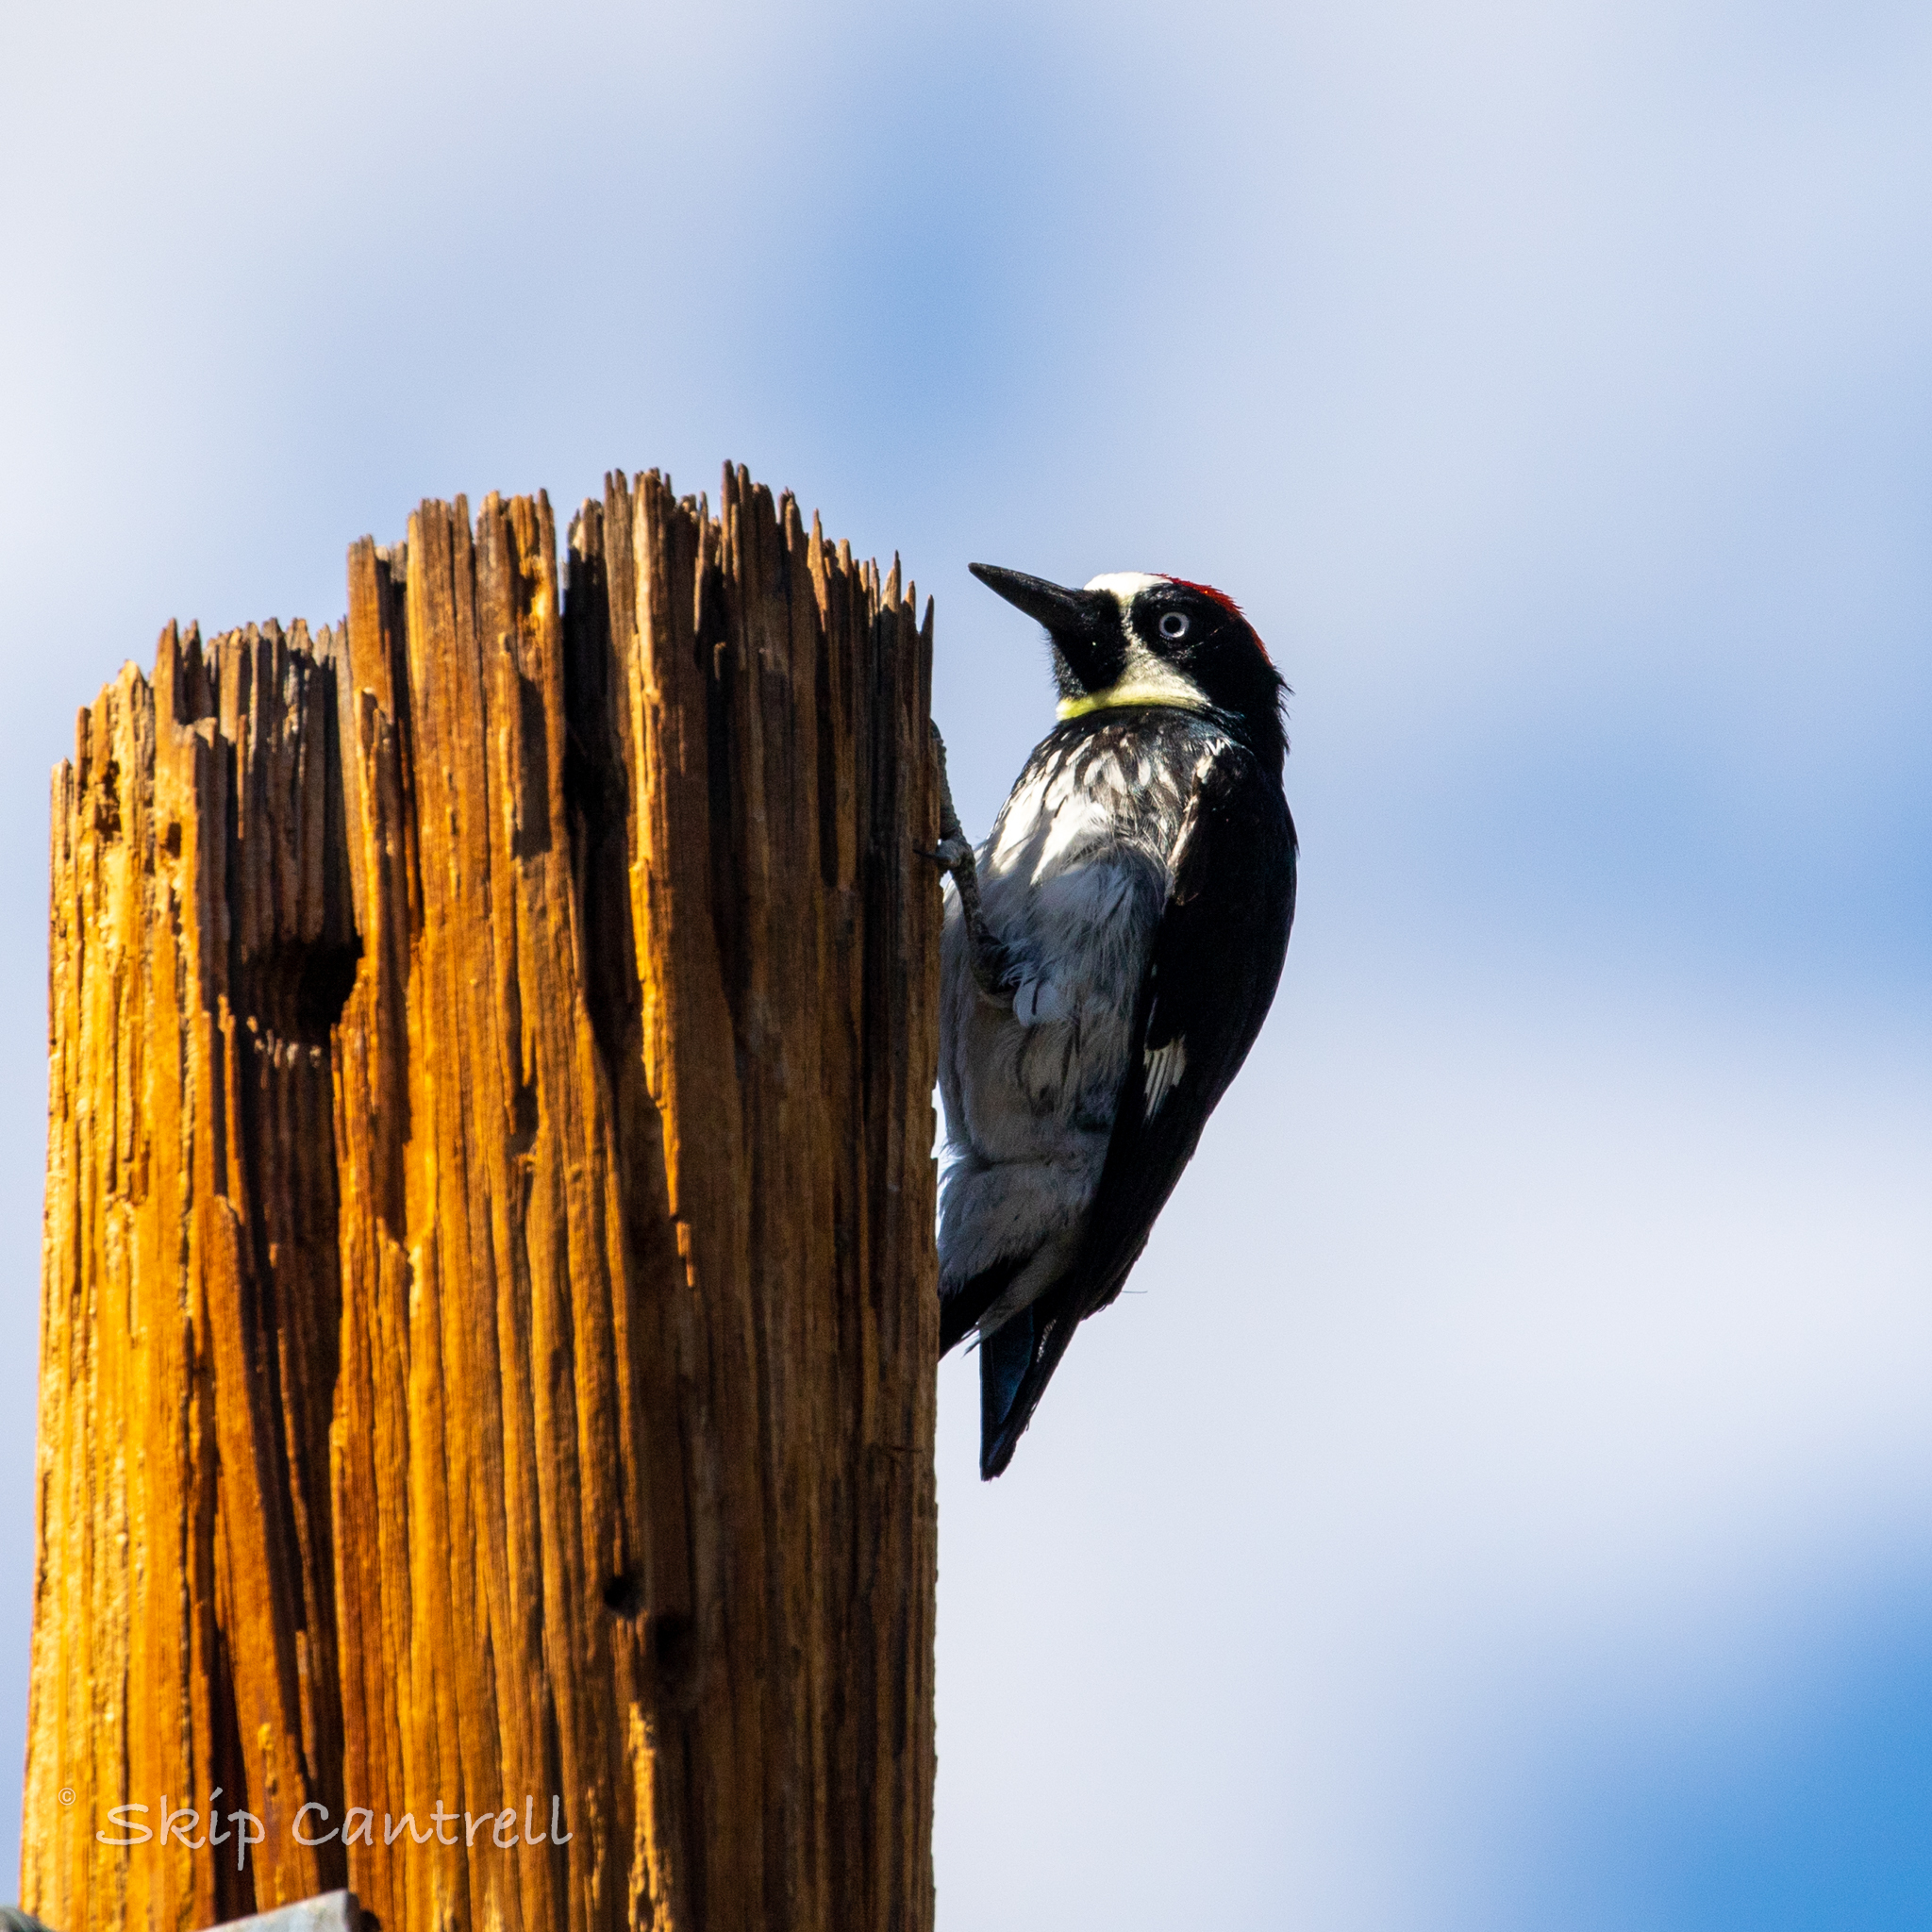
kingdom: Animalia
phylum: Chordata
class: Aves
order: Piciformes
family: Picidae
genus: Melanerpes
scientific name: Melanerpes formicivorus
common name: Acorn woodpecker
